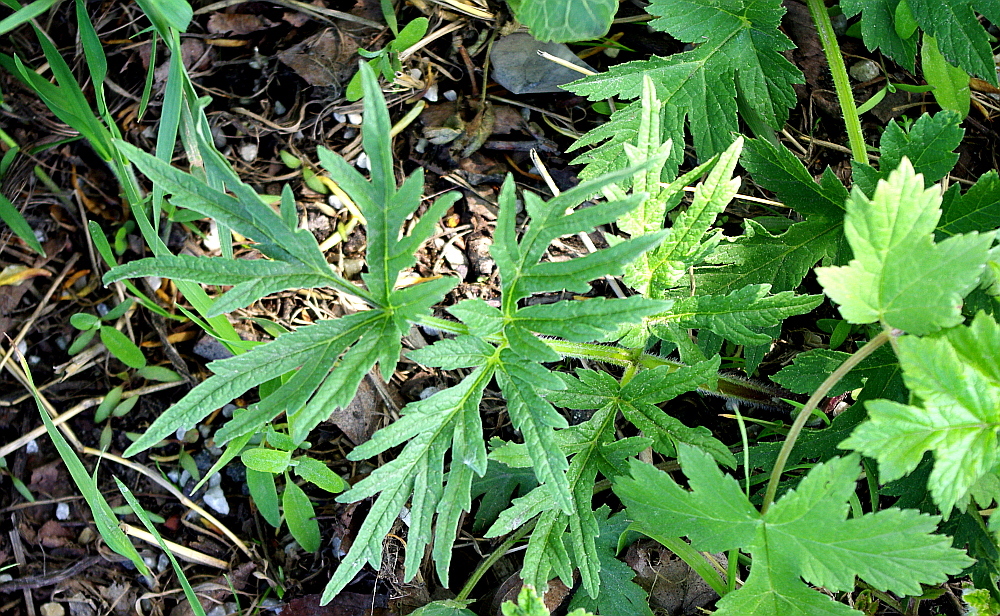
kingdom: Plantae
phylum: Tracheophyta
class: Magnoliopsida
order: Apiales
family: Apiaceae
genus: Heracleum
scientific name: Heracleum sphondylium
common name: Hogweed
